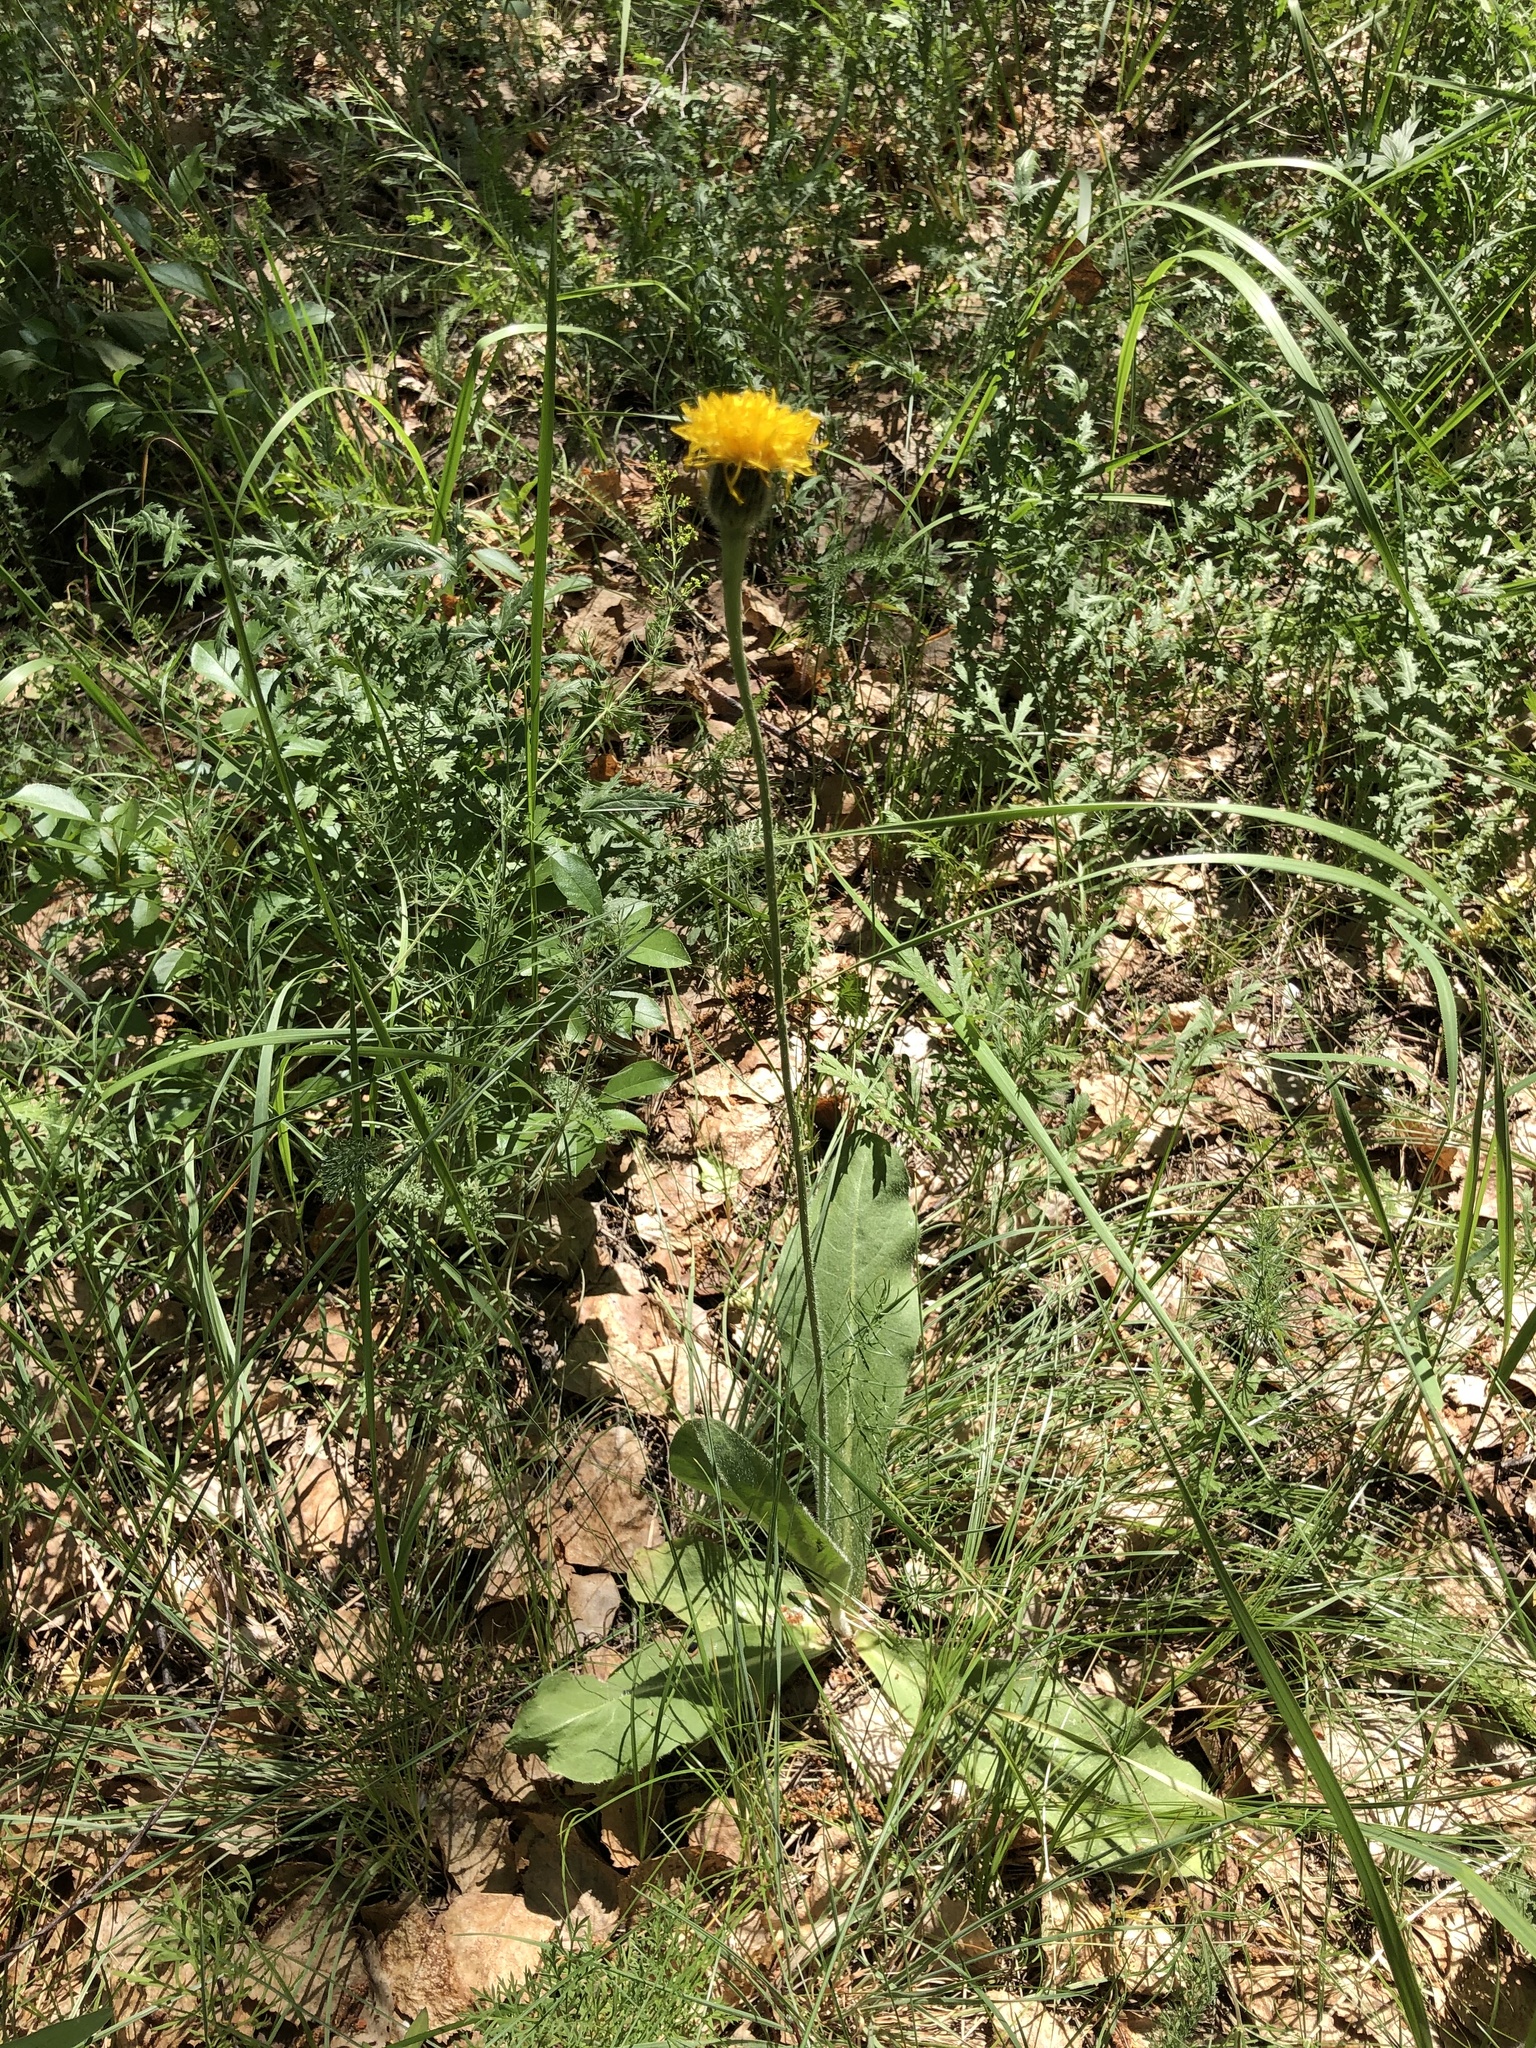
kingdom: Plantae
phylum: Tracheophyta
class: Magnoliopsida
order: Asterales
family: Asteraceae
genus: Trommsdorffia
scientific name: Trommsdorffia maculata
